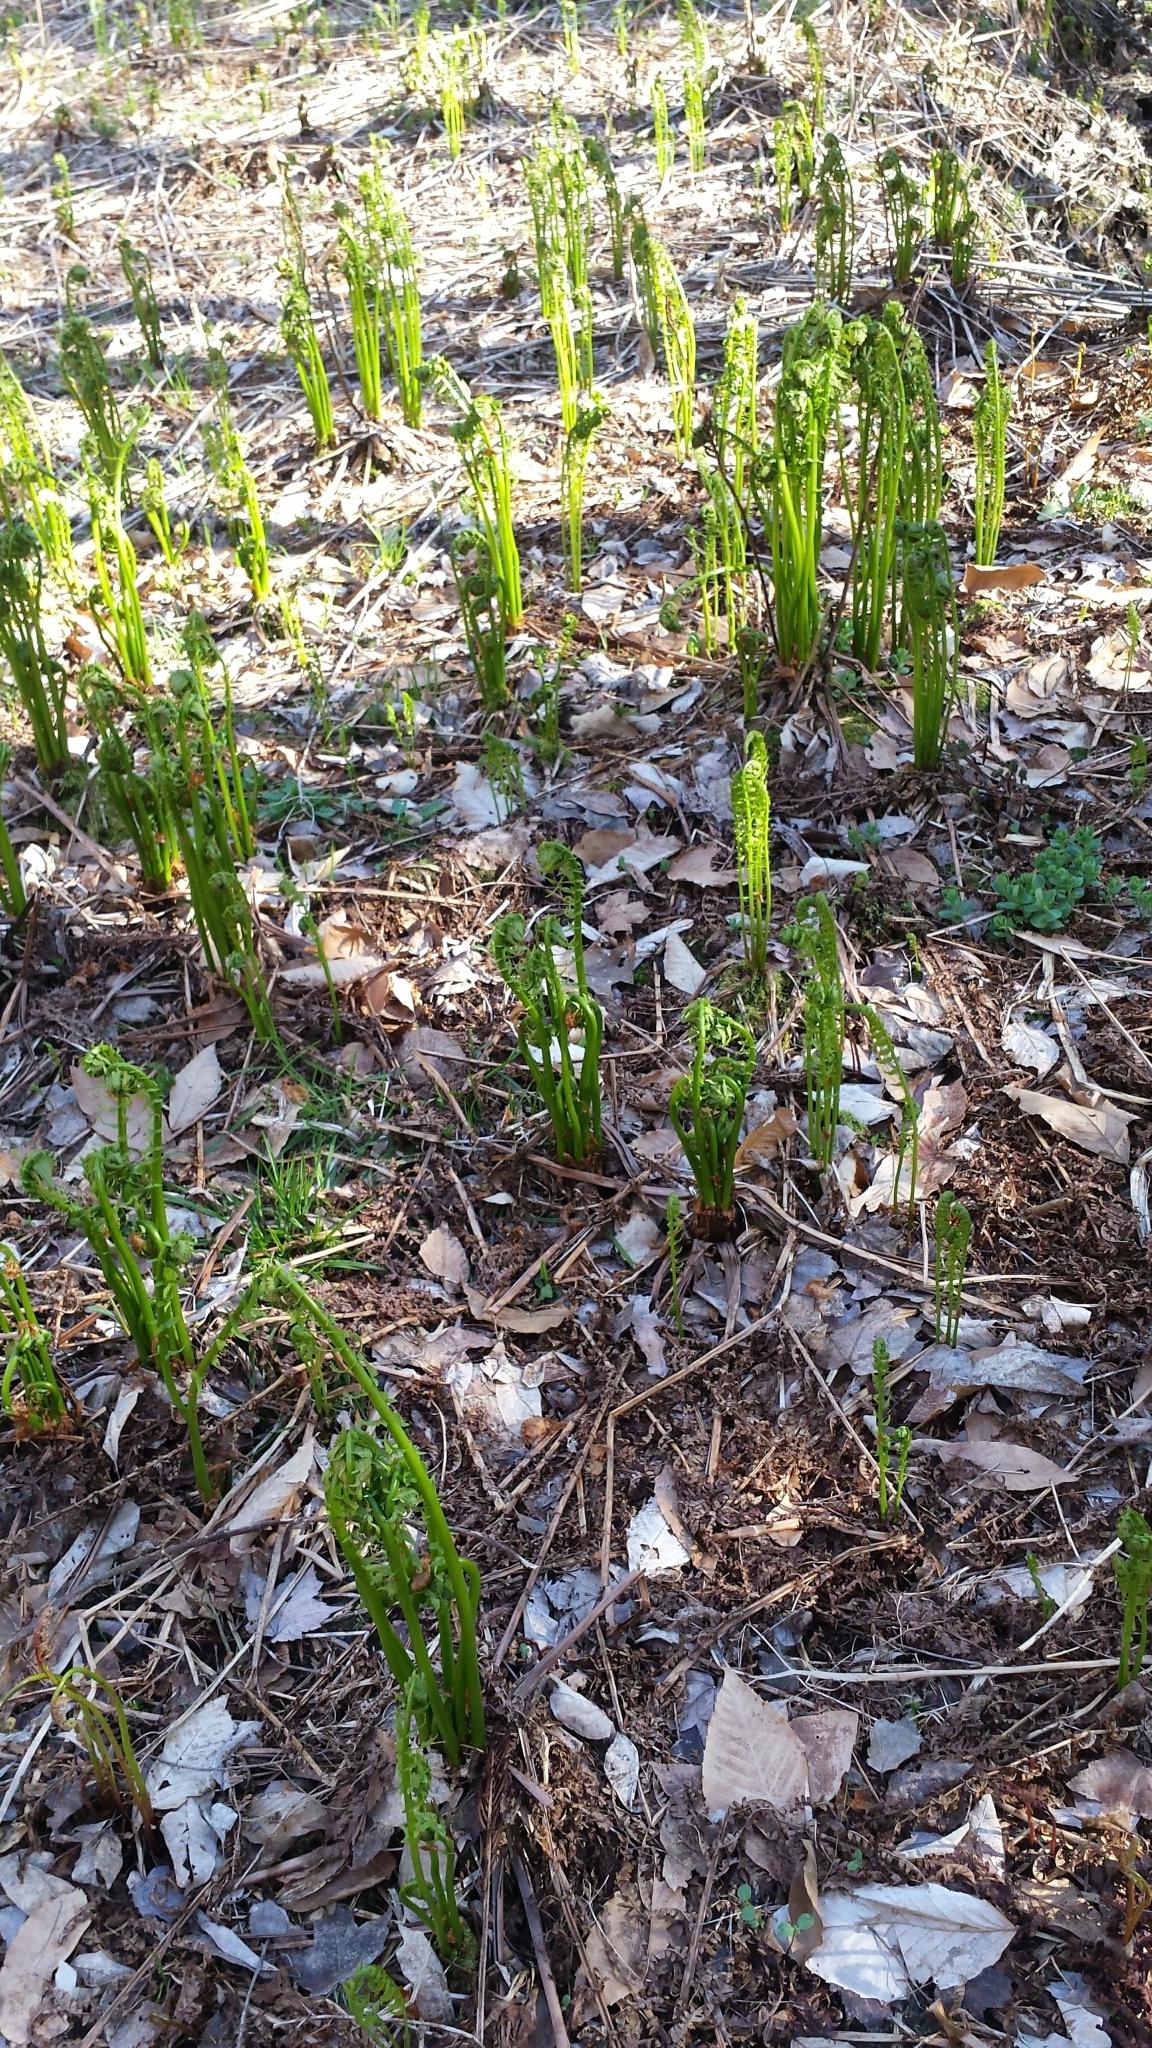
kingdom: Plantae
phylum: Tracheophyta
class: Polypodiopsida
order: Polypodiales
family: Onocleaceae
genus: Matteuccia
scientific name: Matteuccia struthiopteris
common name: Ostrich fern
